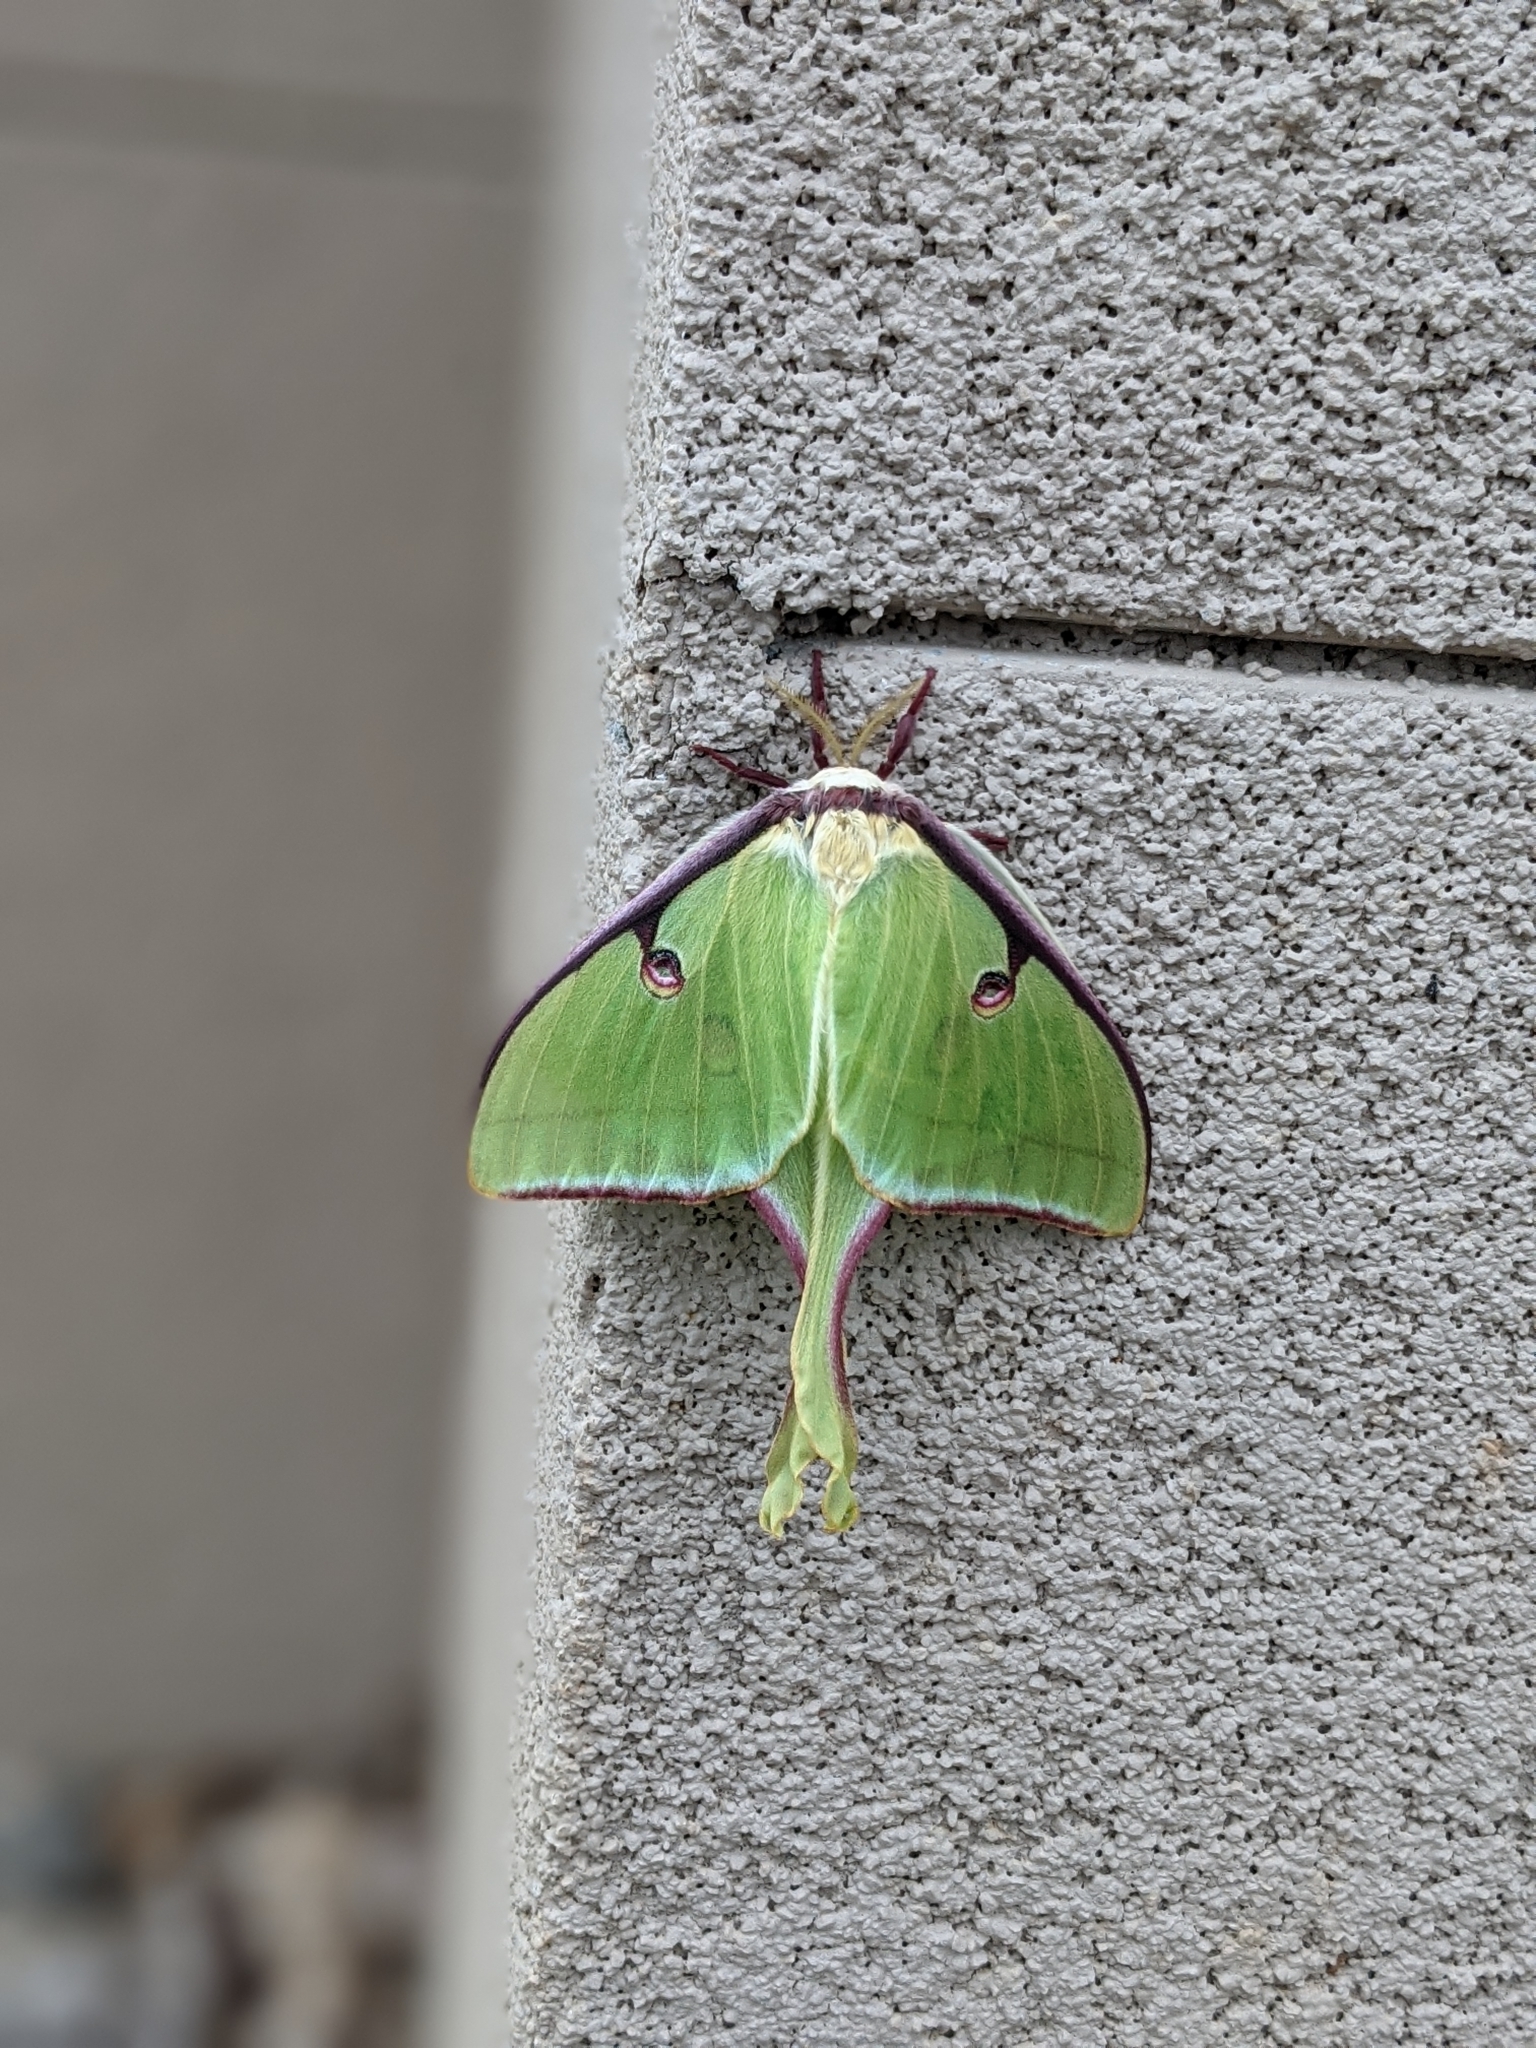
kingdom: Animalia
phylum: Arthropoda
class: Insecta
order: Lepidoptera
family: Saturniidae
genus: Actias
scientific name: Actias luna
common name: Luna moth
